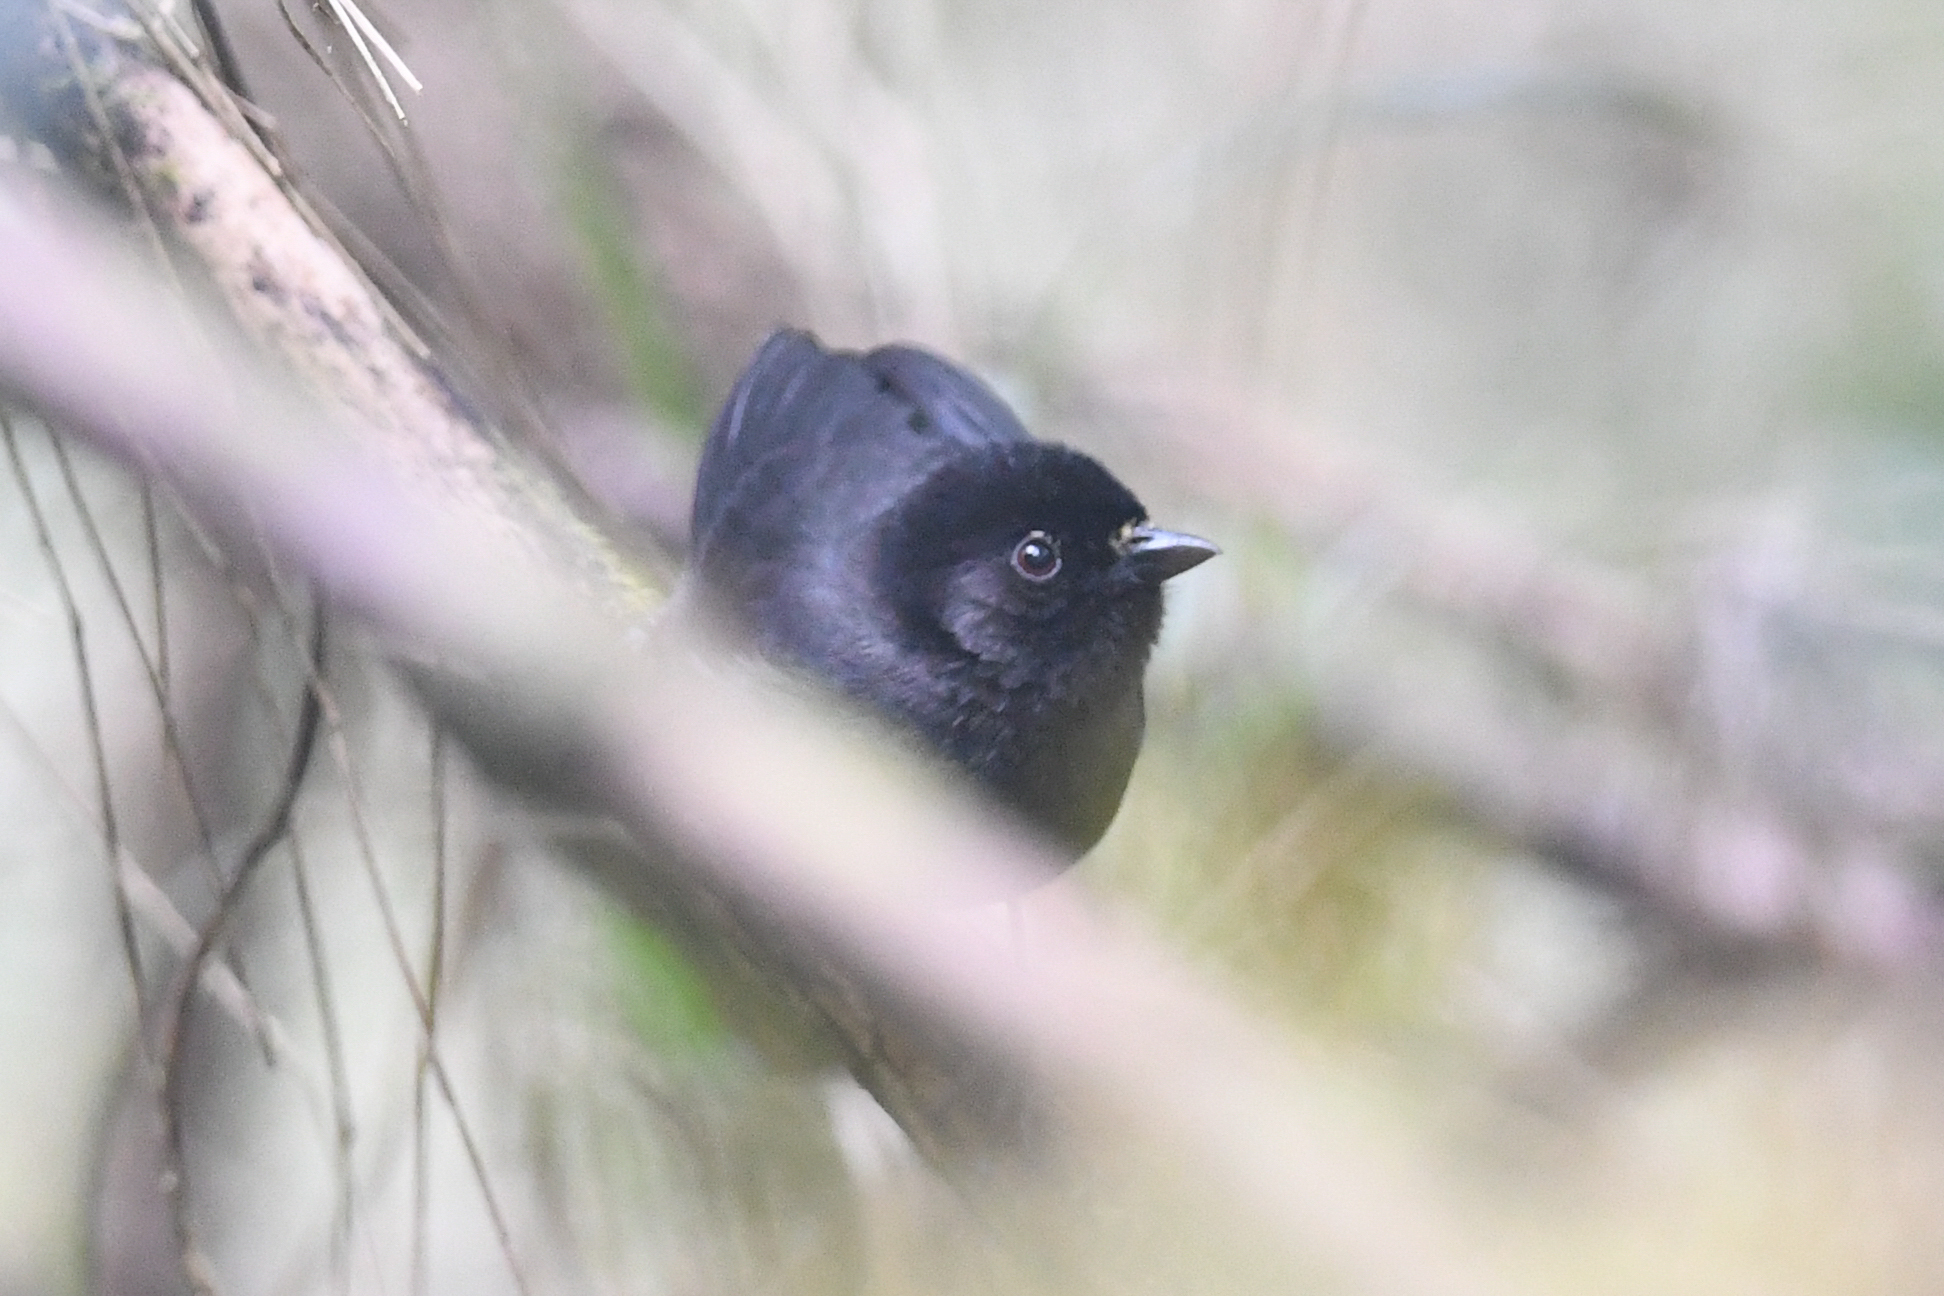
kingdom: Animalia
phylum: Chordata
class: Aves
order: Passeriformes
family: Passerellidae
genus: Atlapetes
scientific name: Atlapetes tibialis
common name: Yellow-thighed brushfinch
